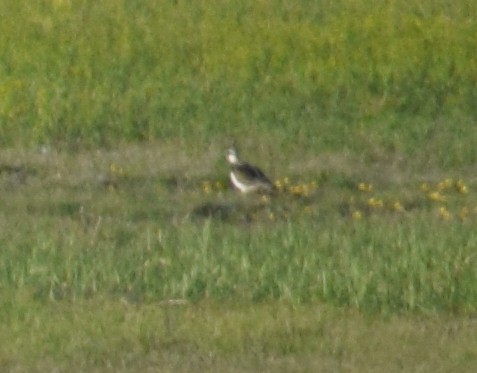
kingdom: Animalia
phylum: Chordata
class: Aves
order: Charadriiformes
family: Charadriidae
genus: Vanellus
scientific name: Vanellus vanellus
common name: Northern lapwing
